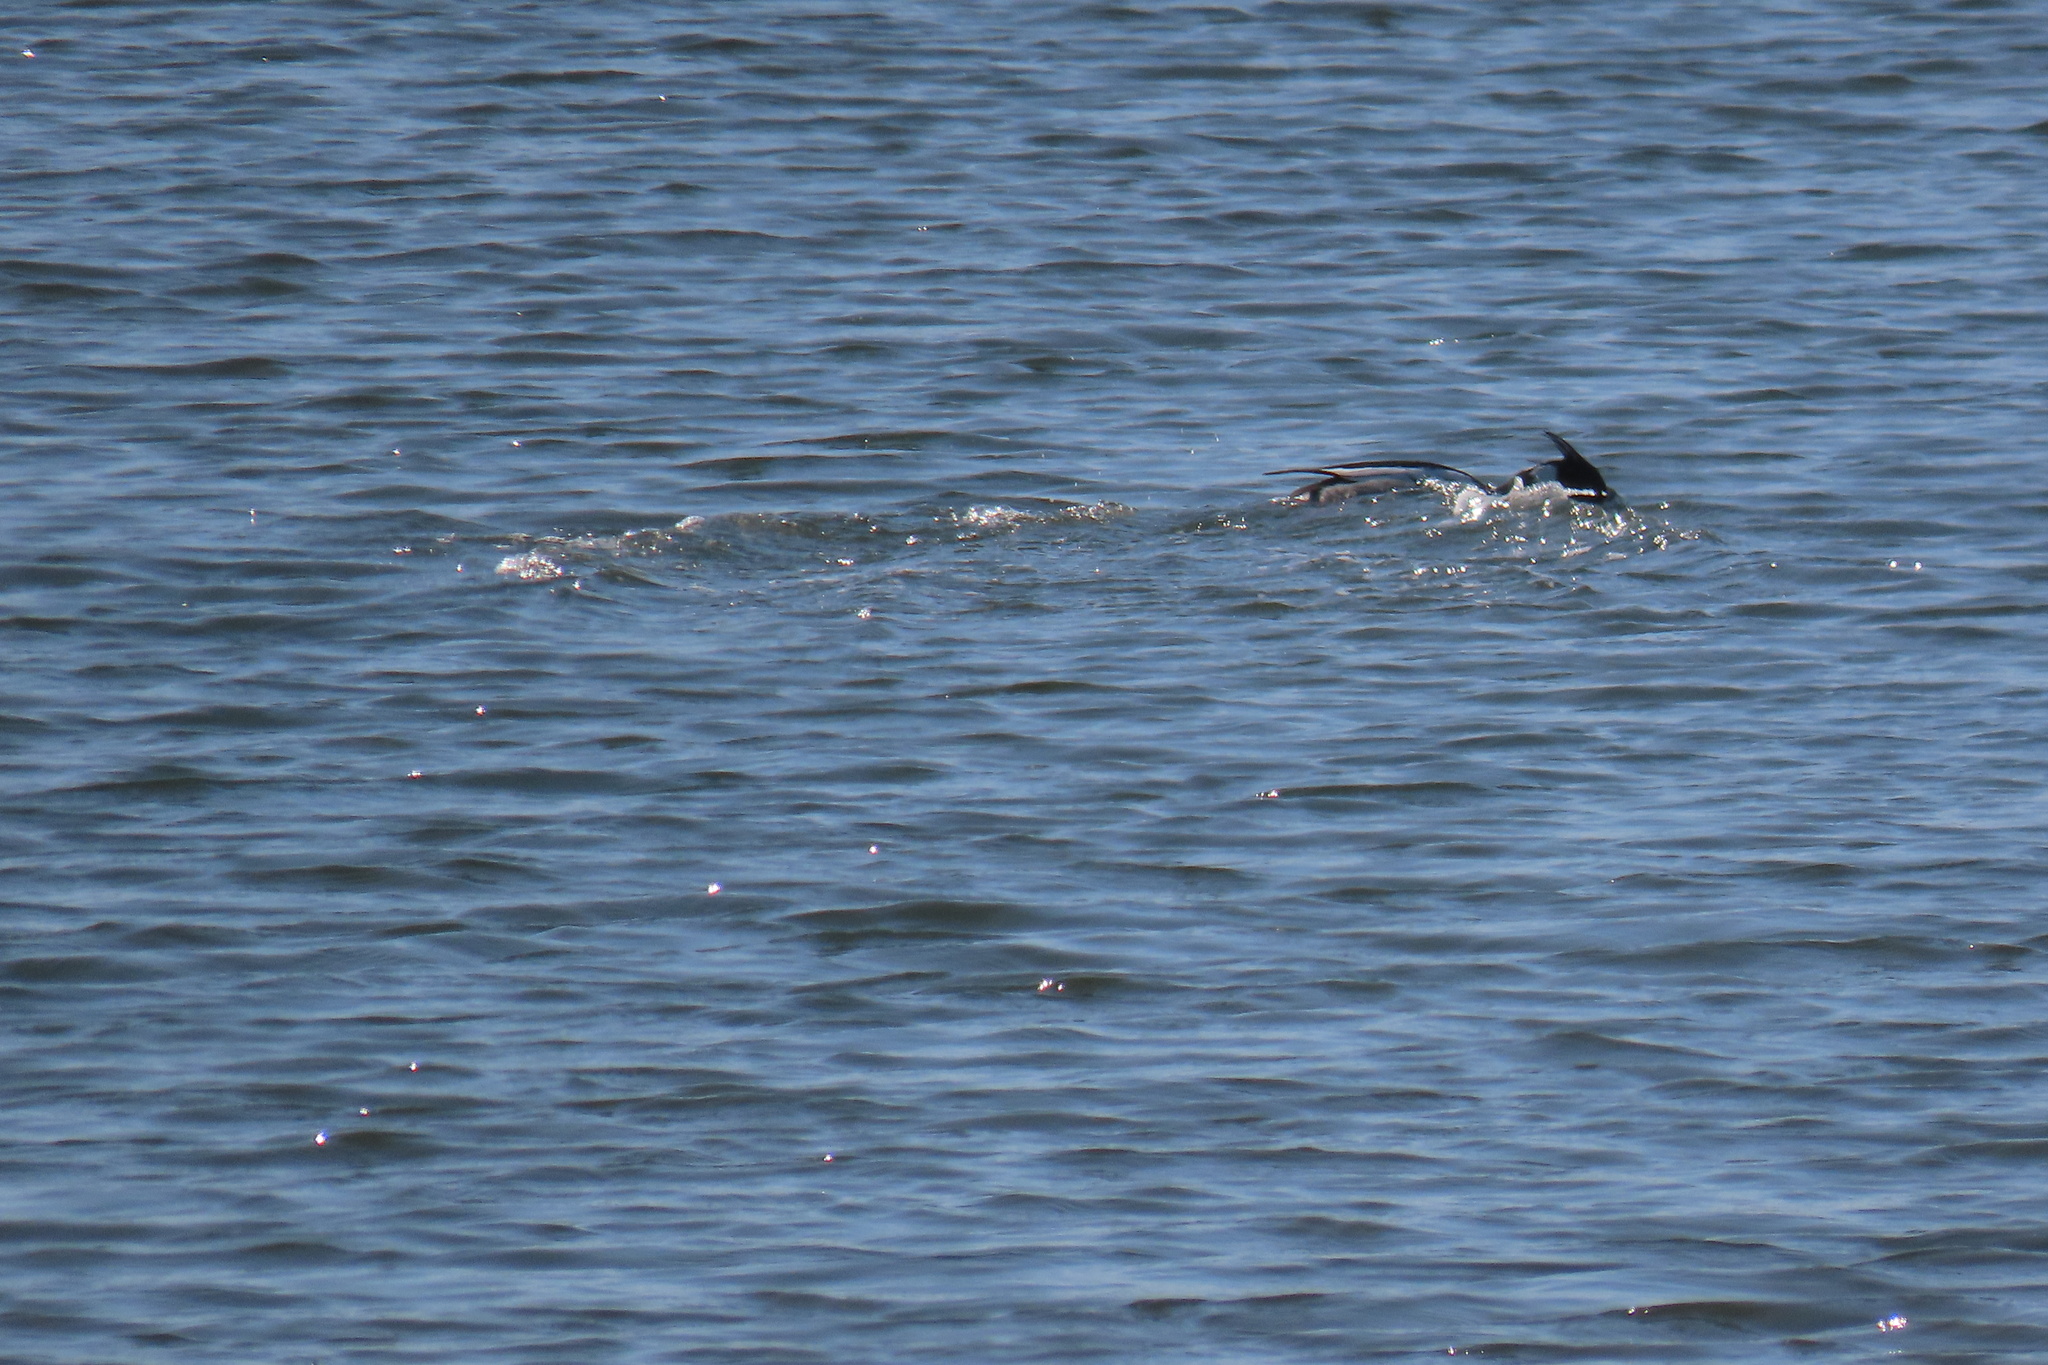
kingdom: Animalia
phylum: Chordata
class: Aves
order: Anseriformes
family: Anatidae
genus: Mergus
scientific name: Mergus serrator
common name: Red-breasted merganser
